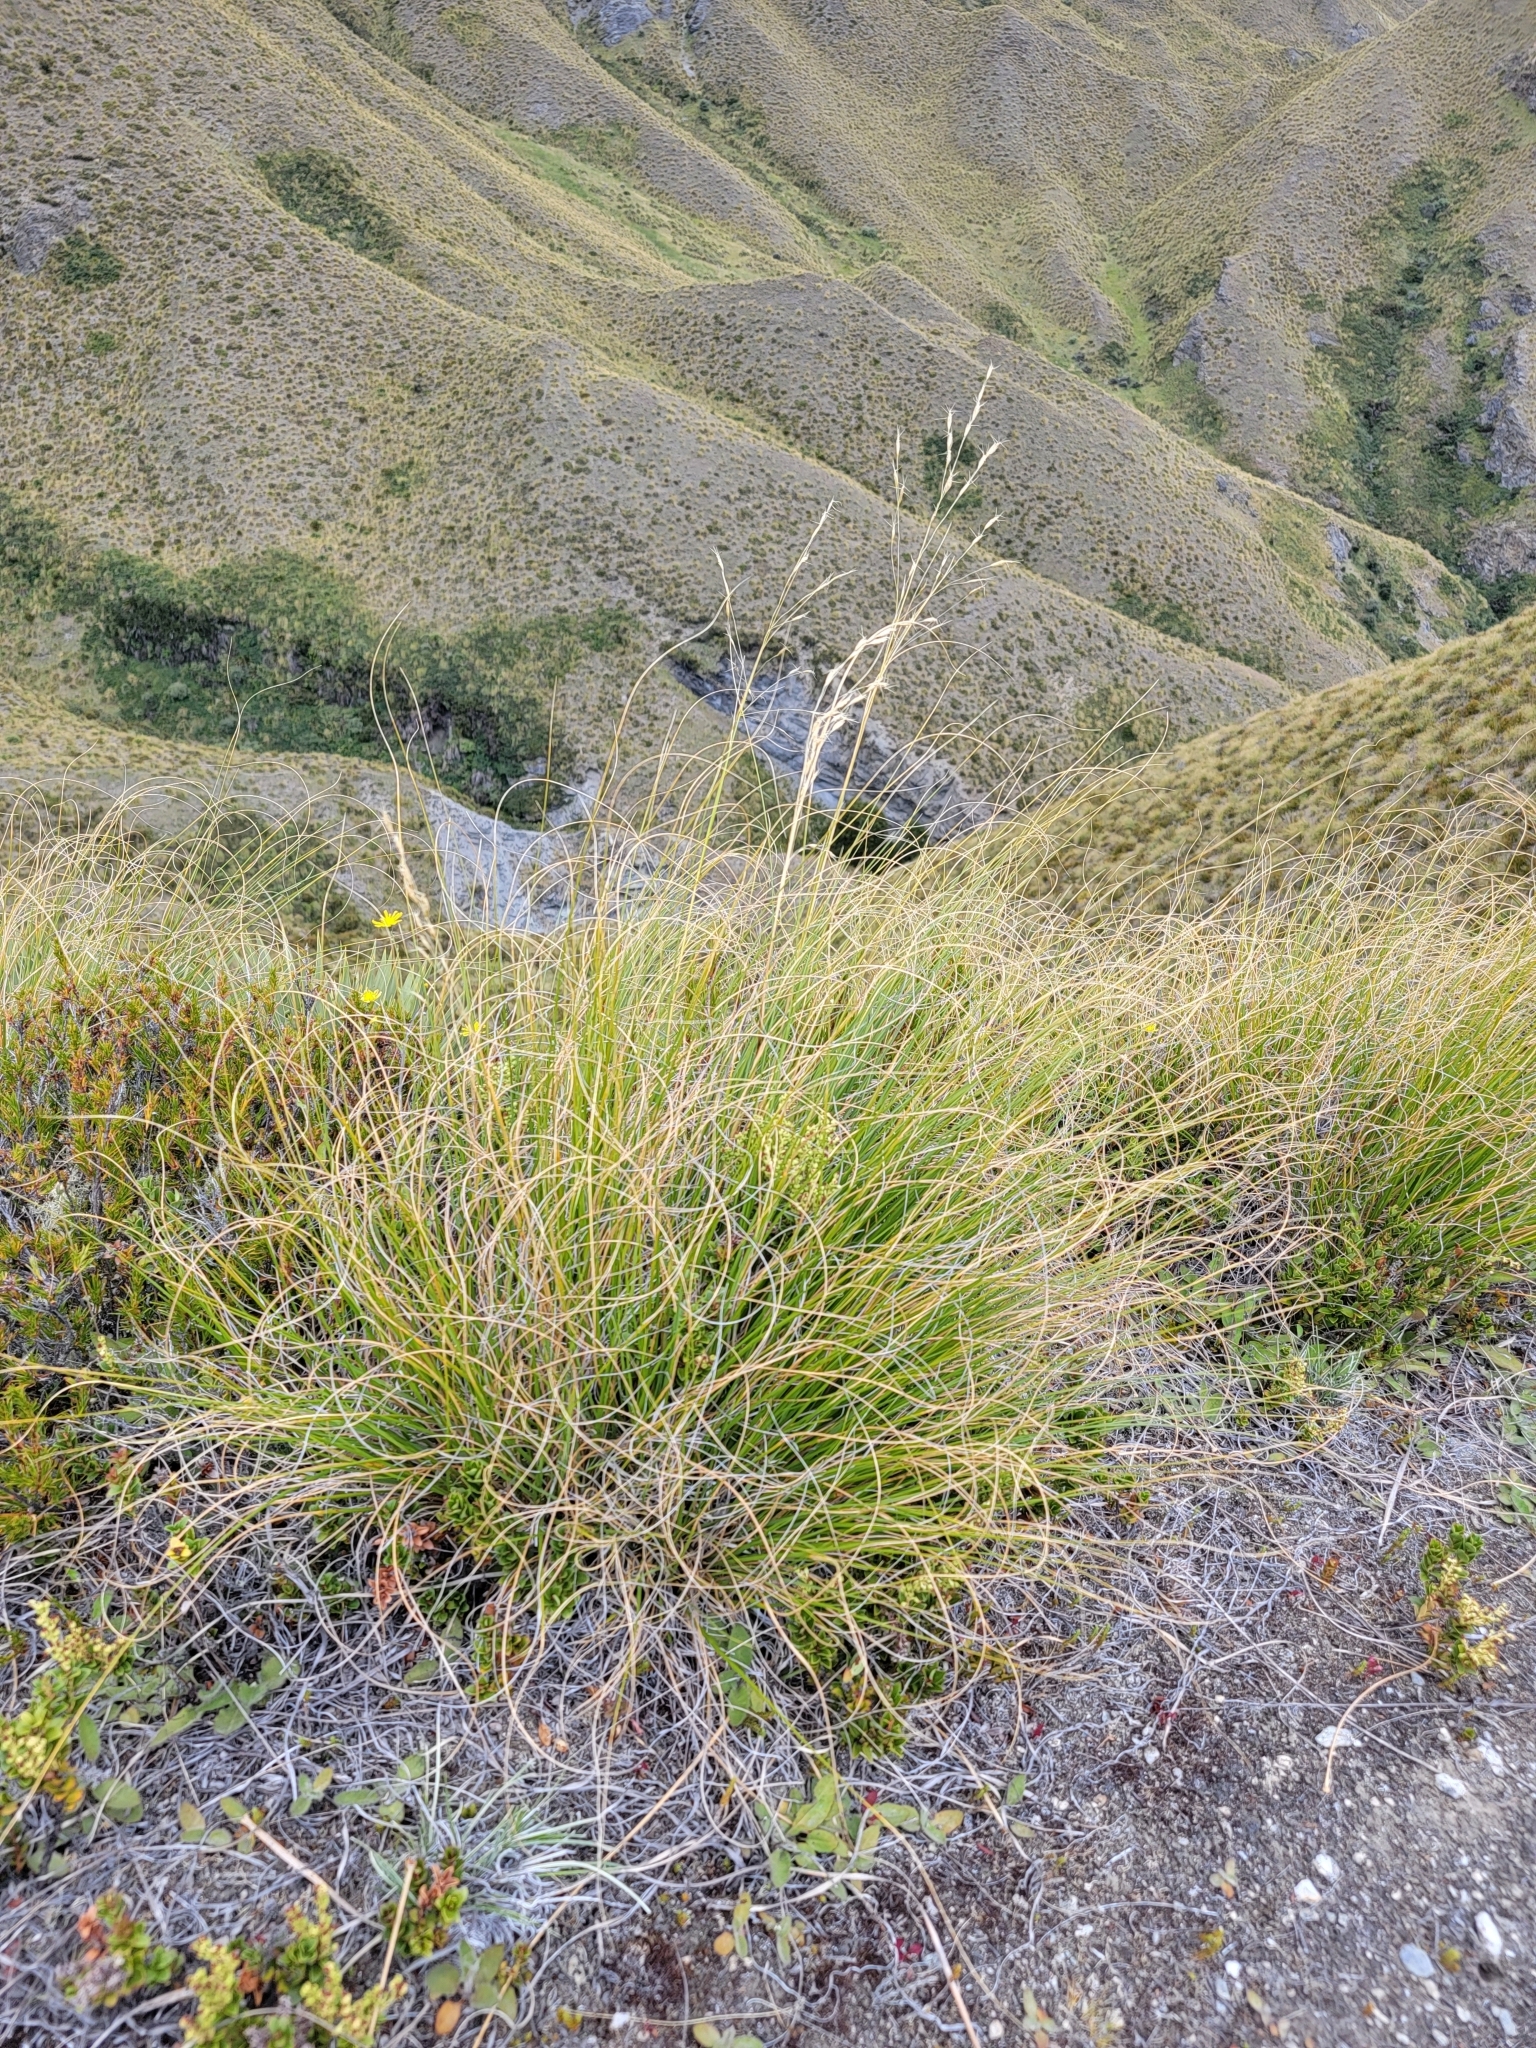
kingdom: Plantae
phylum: Tracheophyta
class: Liliopsida
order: Poales
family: Poaceae
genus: Chionochloa
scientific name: Chionochloa rigida
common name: Narrow leaved snow tussock
